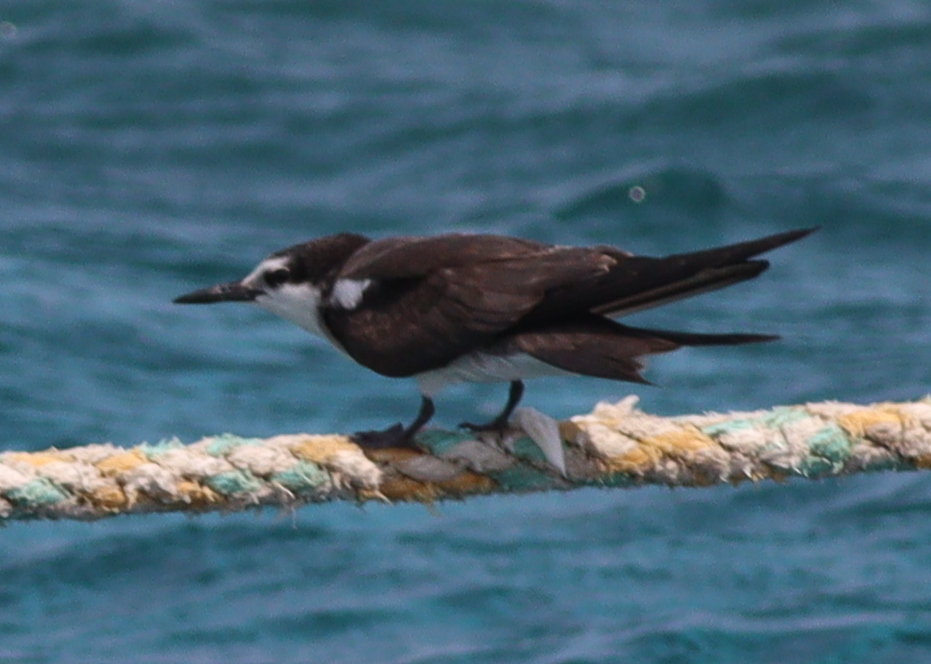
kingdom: Animalia
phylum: Chordata
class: Aves
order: Charadriiformes
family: Laridae
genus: Onychoprion
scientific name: Onychoprion anaethetus
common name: Bridled tern
